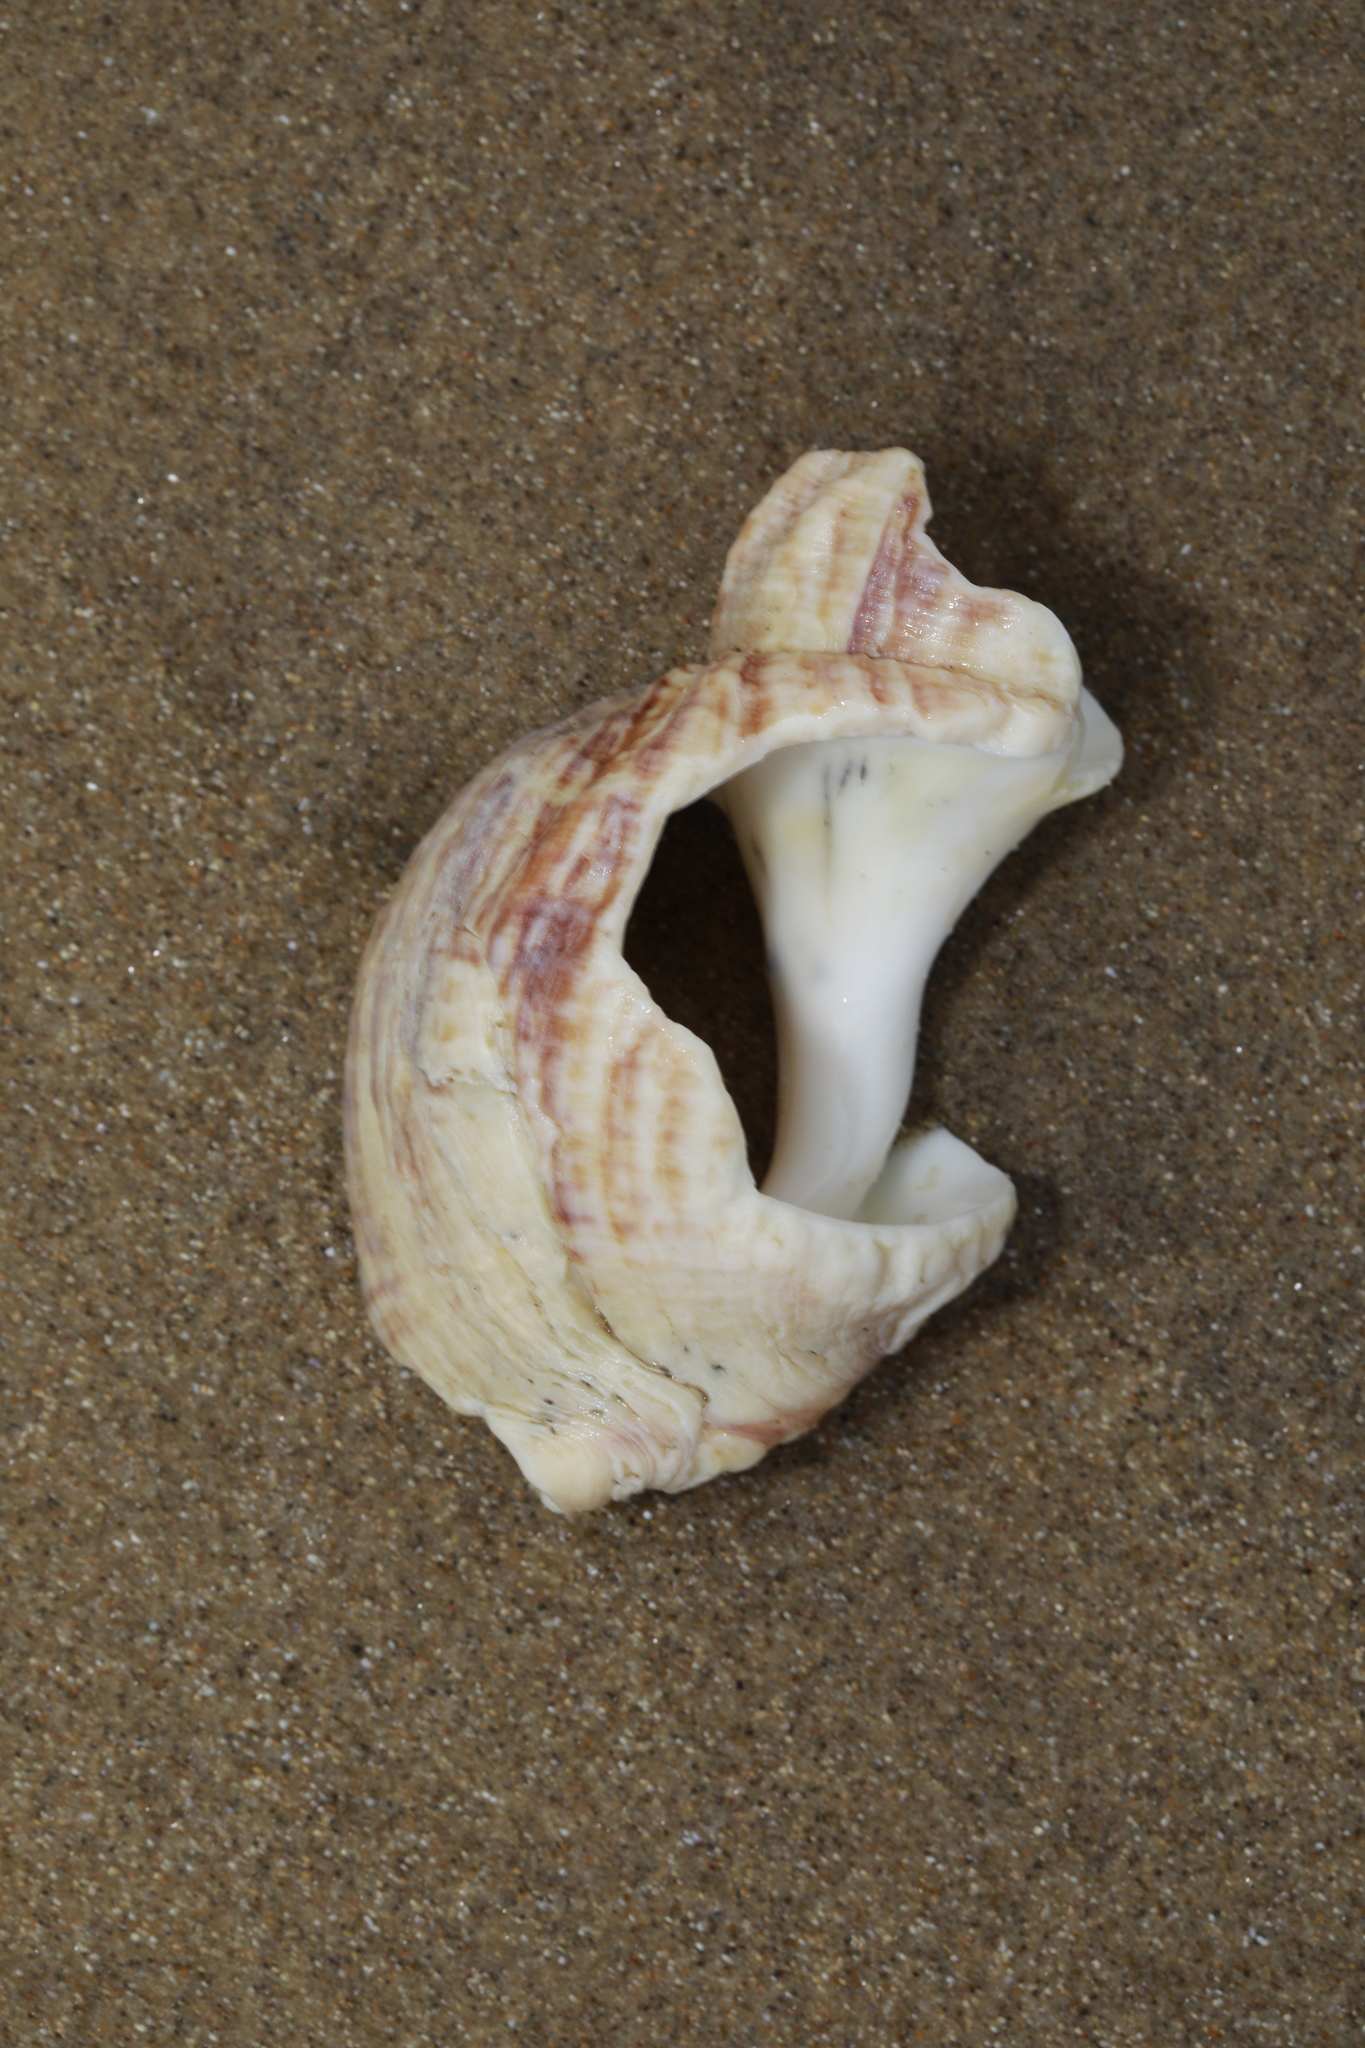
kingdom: Animalia
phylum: Mollusca
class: Gastropoda
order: Neogastropoda
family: Buccinidae
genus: Buccinum
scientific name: Buccinum undatum
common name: Common whelk
